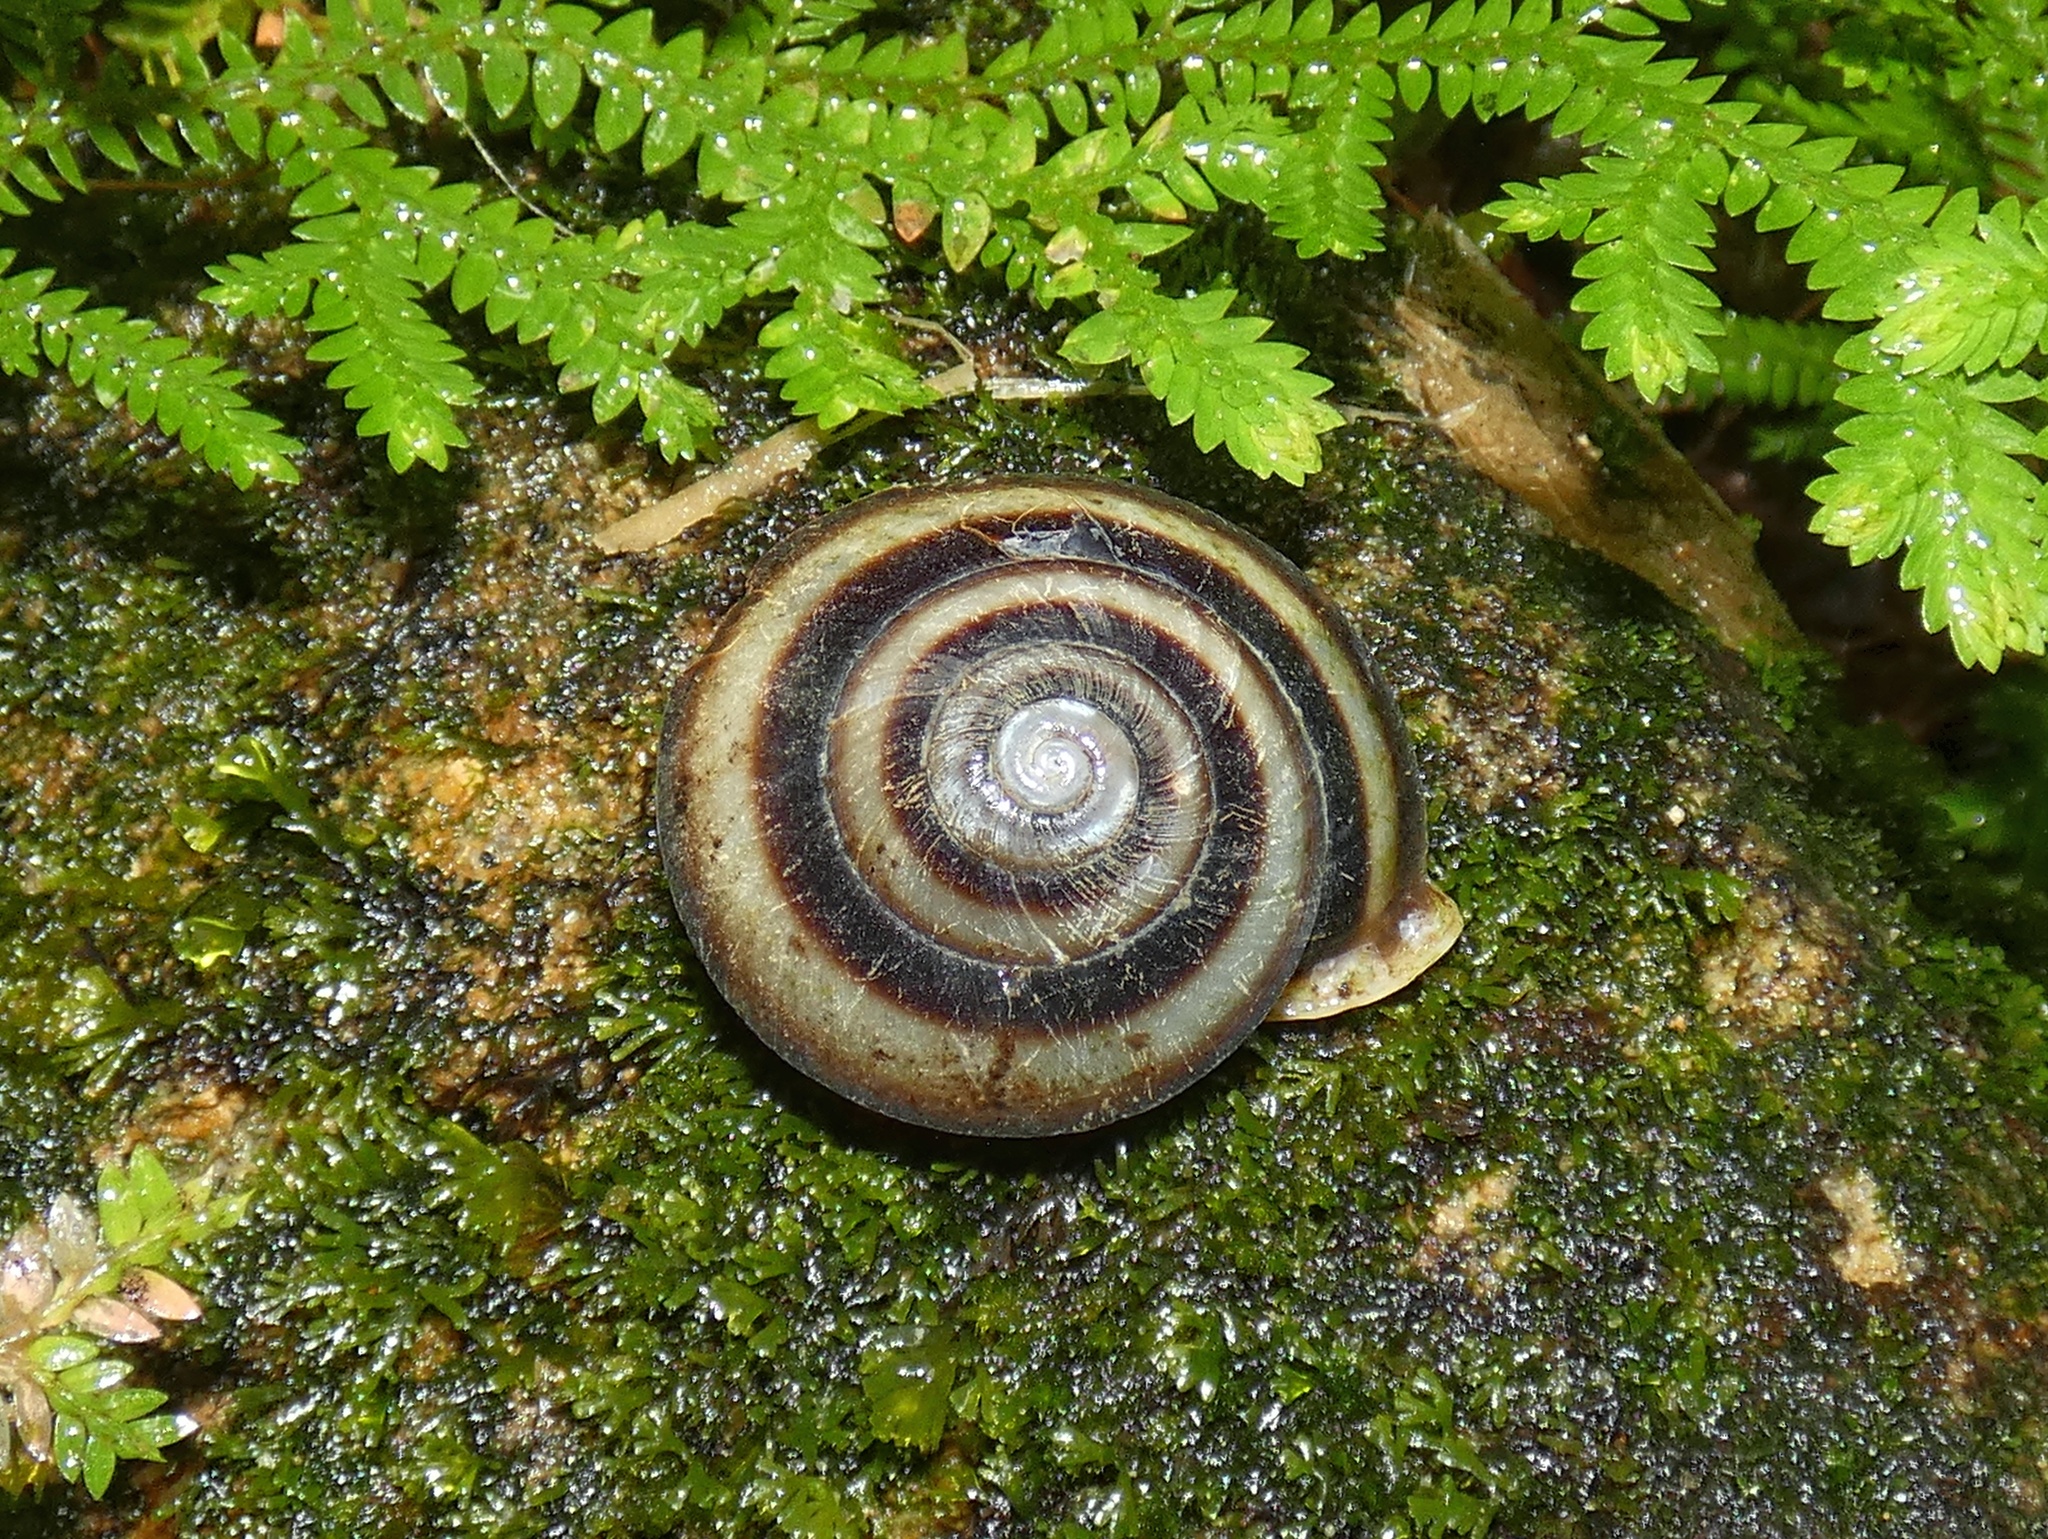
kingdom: Animalia
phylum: Mollusca
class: Gastropoda
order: Stylommatophora
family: Labyrinthidae
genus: Labyrinthus
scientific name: Labyrinthus uncigerus
